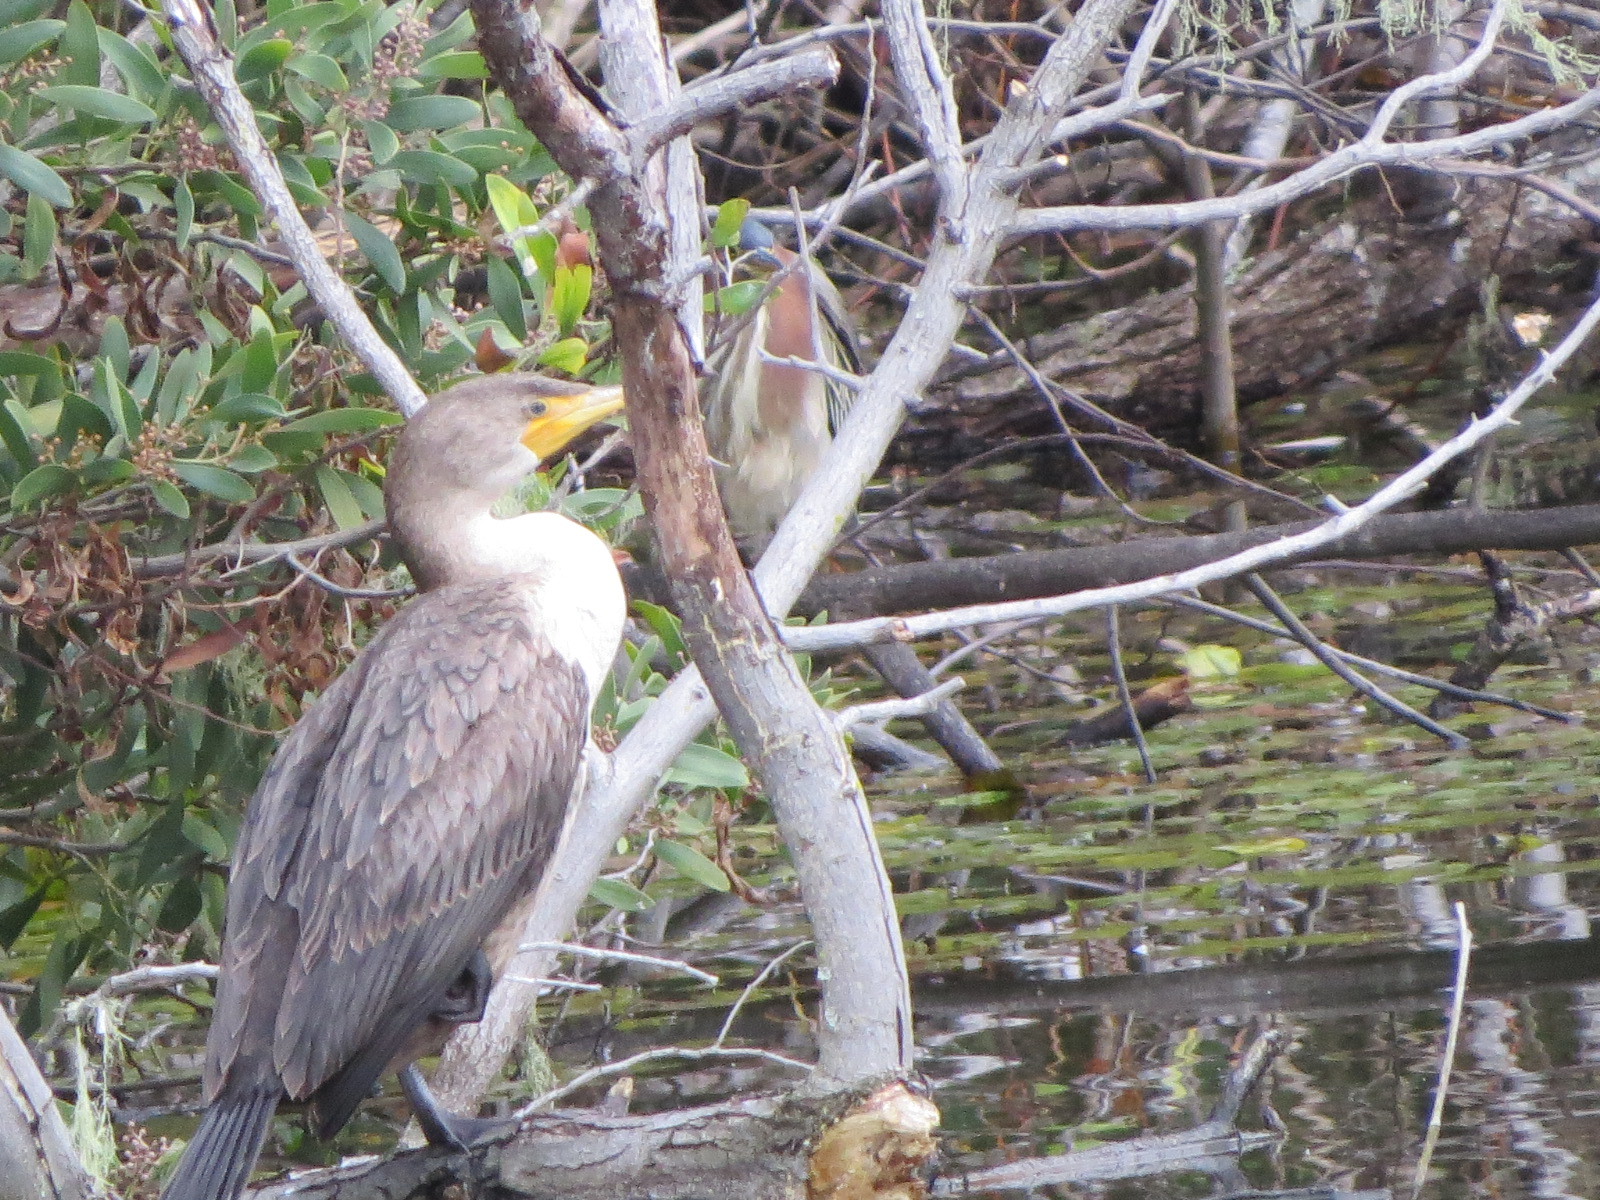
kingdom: Animalia
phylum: Chordata
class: Aves
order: Suliformes
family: Phalacrocoracidae
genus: Phalacrocorax
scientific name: Phalacrocorax auritus
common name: Double-crested cormorant
